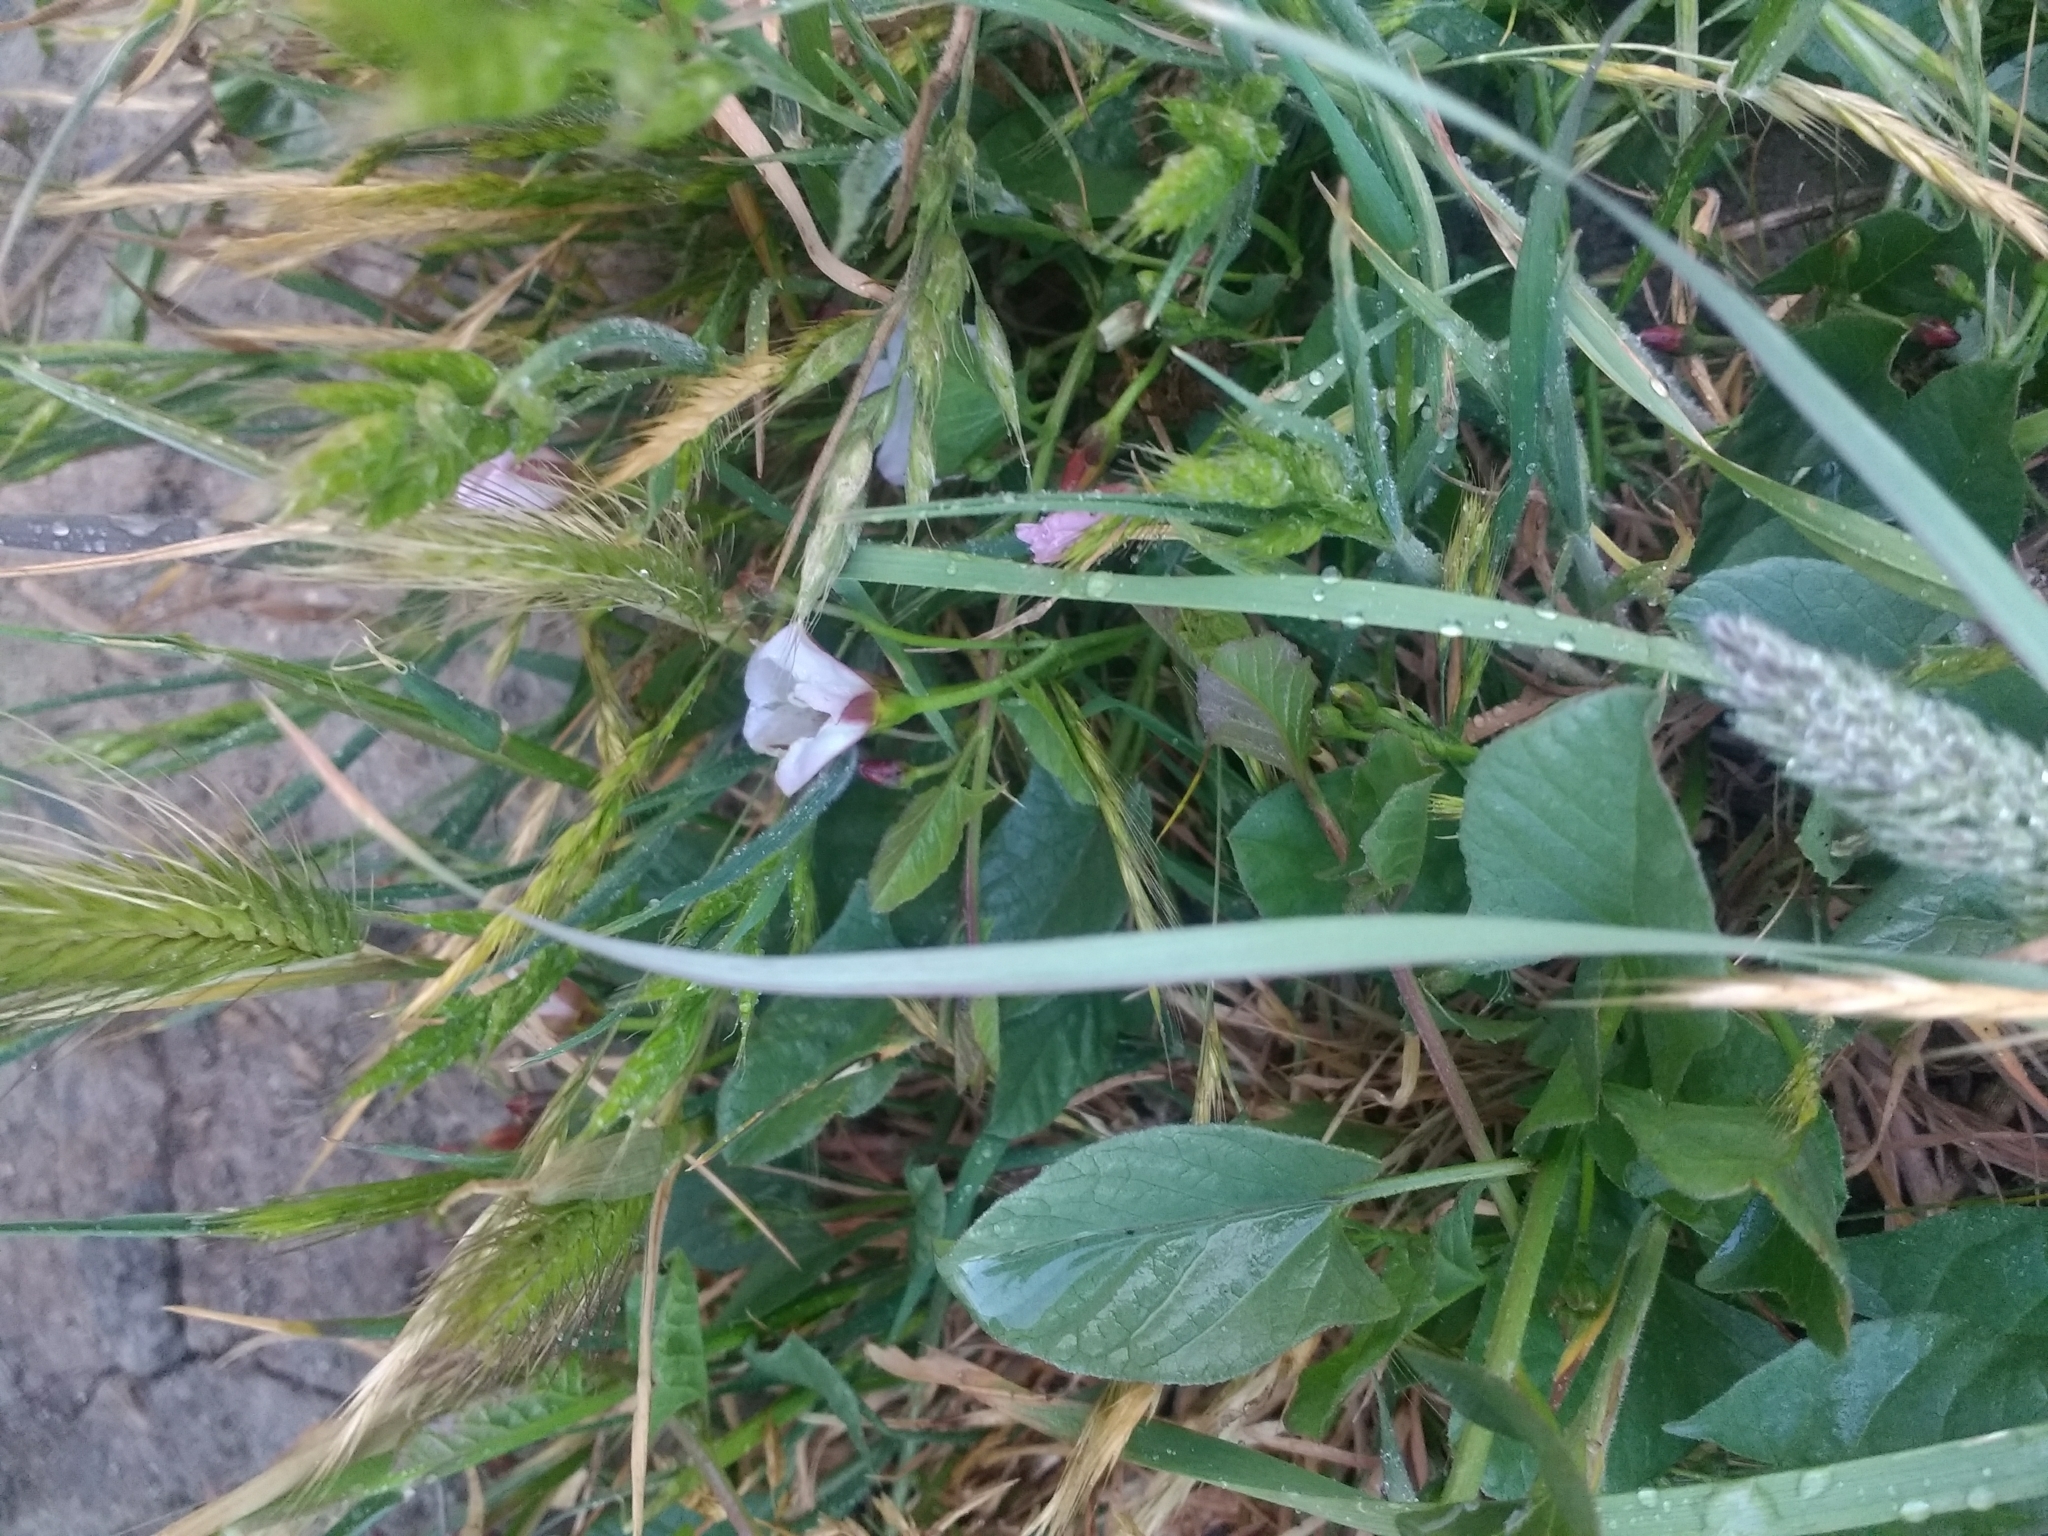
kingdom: Plantae
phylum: Tracheophyta
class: Magnoliopsida
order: Solanales
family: Convolvulaceae
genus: Convolvulus
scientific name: Convolvulus arvensis
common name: Field bindweed
